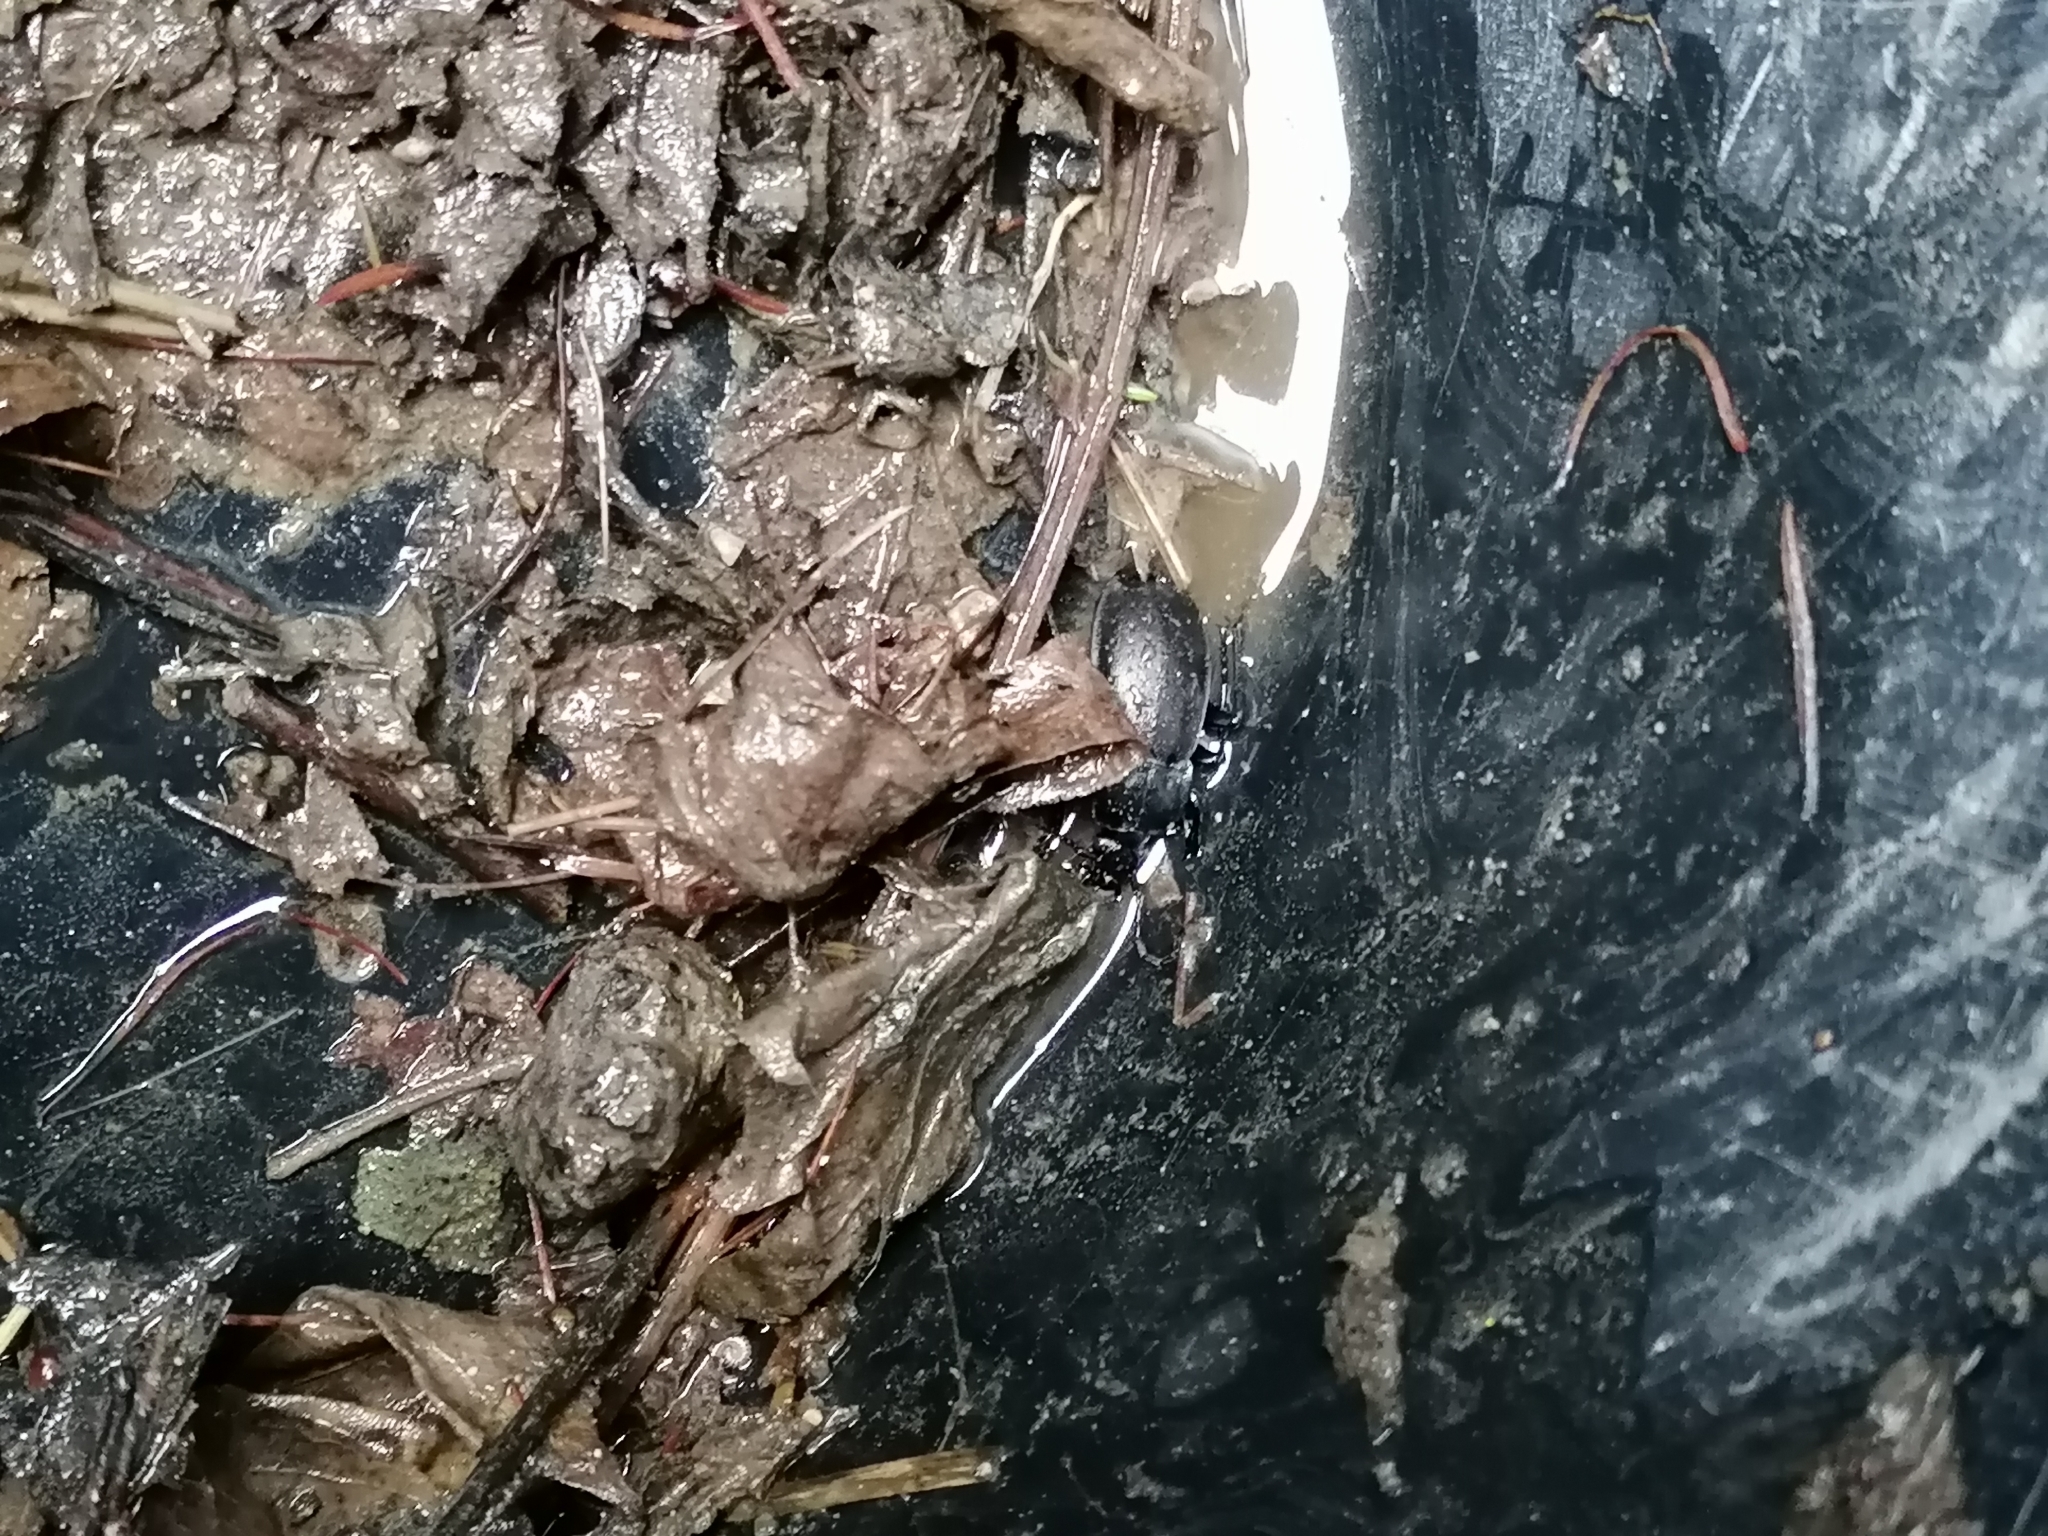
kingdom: Animalia
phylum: Arthropoda
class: Insecta
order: Coleoptera
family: Carabidae
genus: Carabus
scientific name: Carabus
